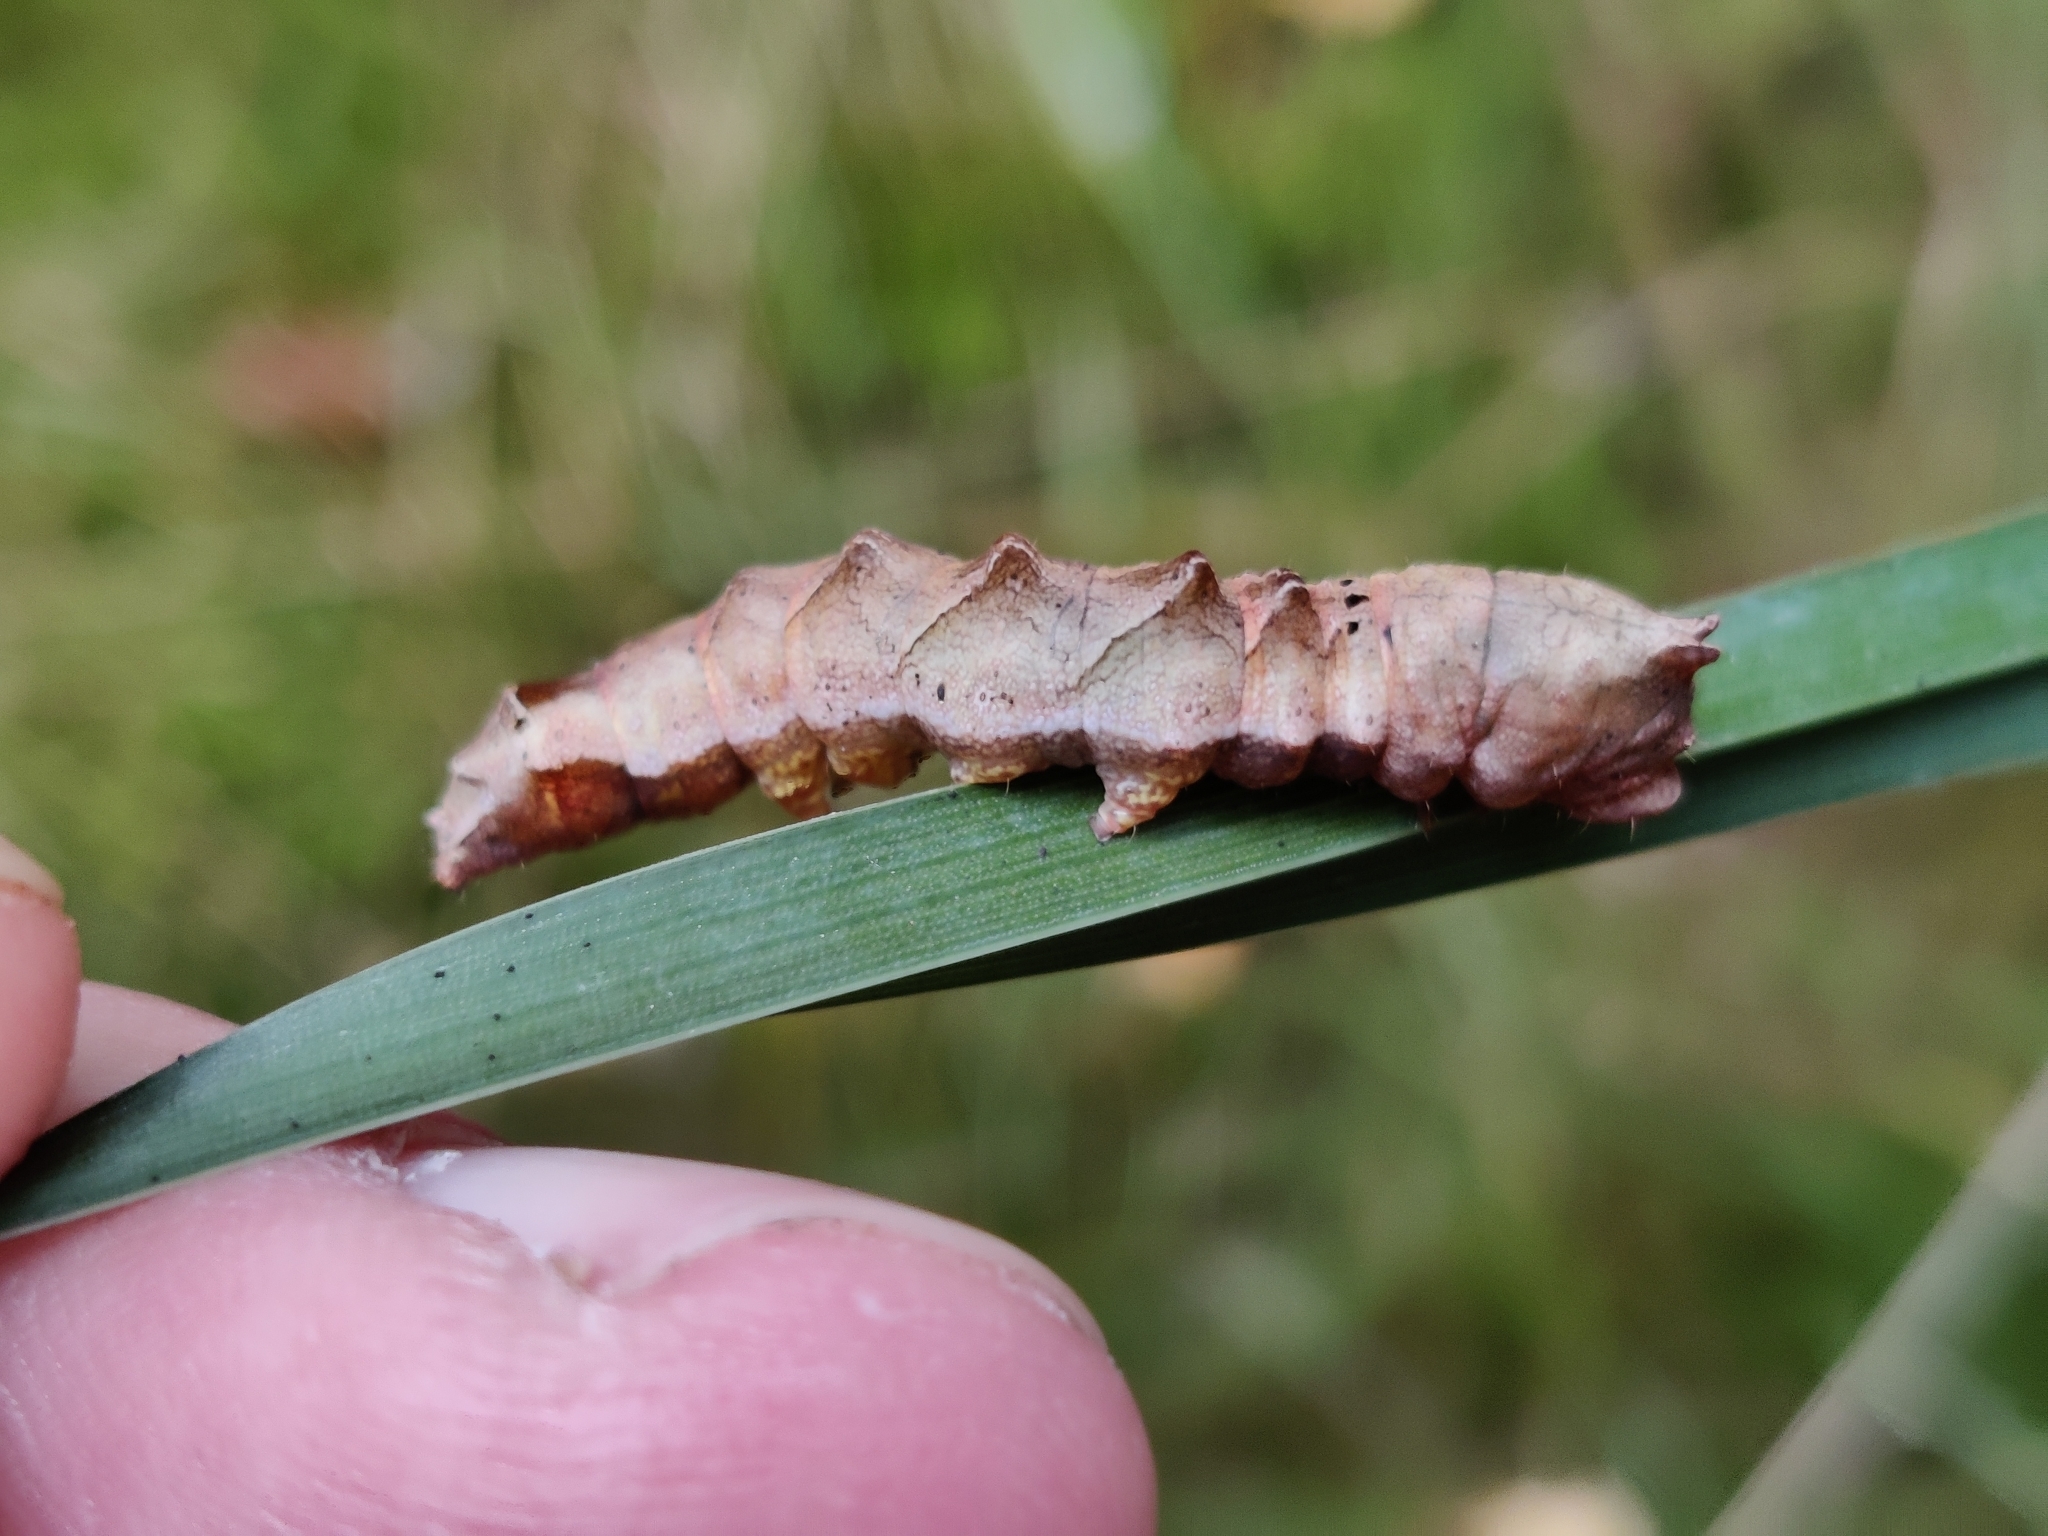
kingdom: Animalia
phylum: Arthropoda
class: Insecta
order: Lepidoptera
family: Drepanidae
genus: Thyatira
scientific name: Thyatira batis
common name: Peach blossom
